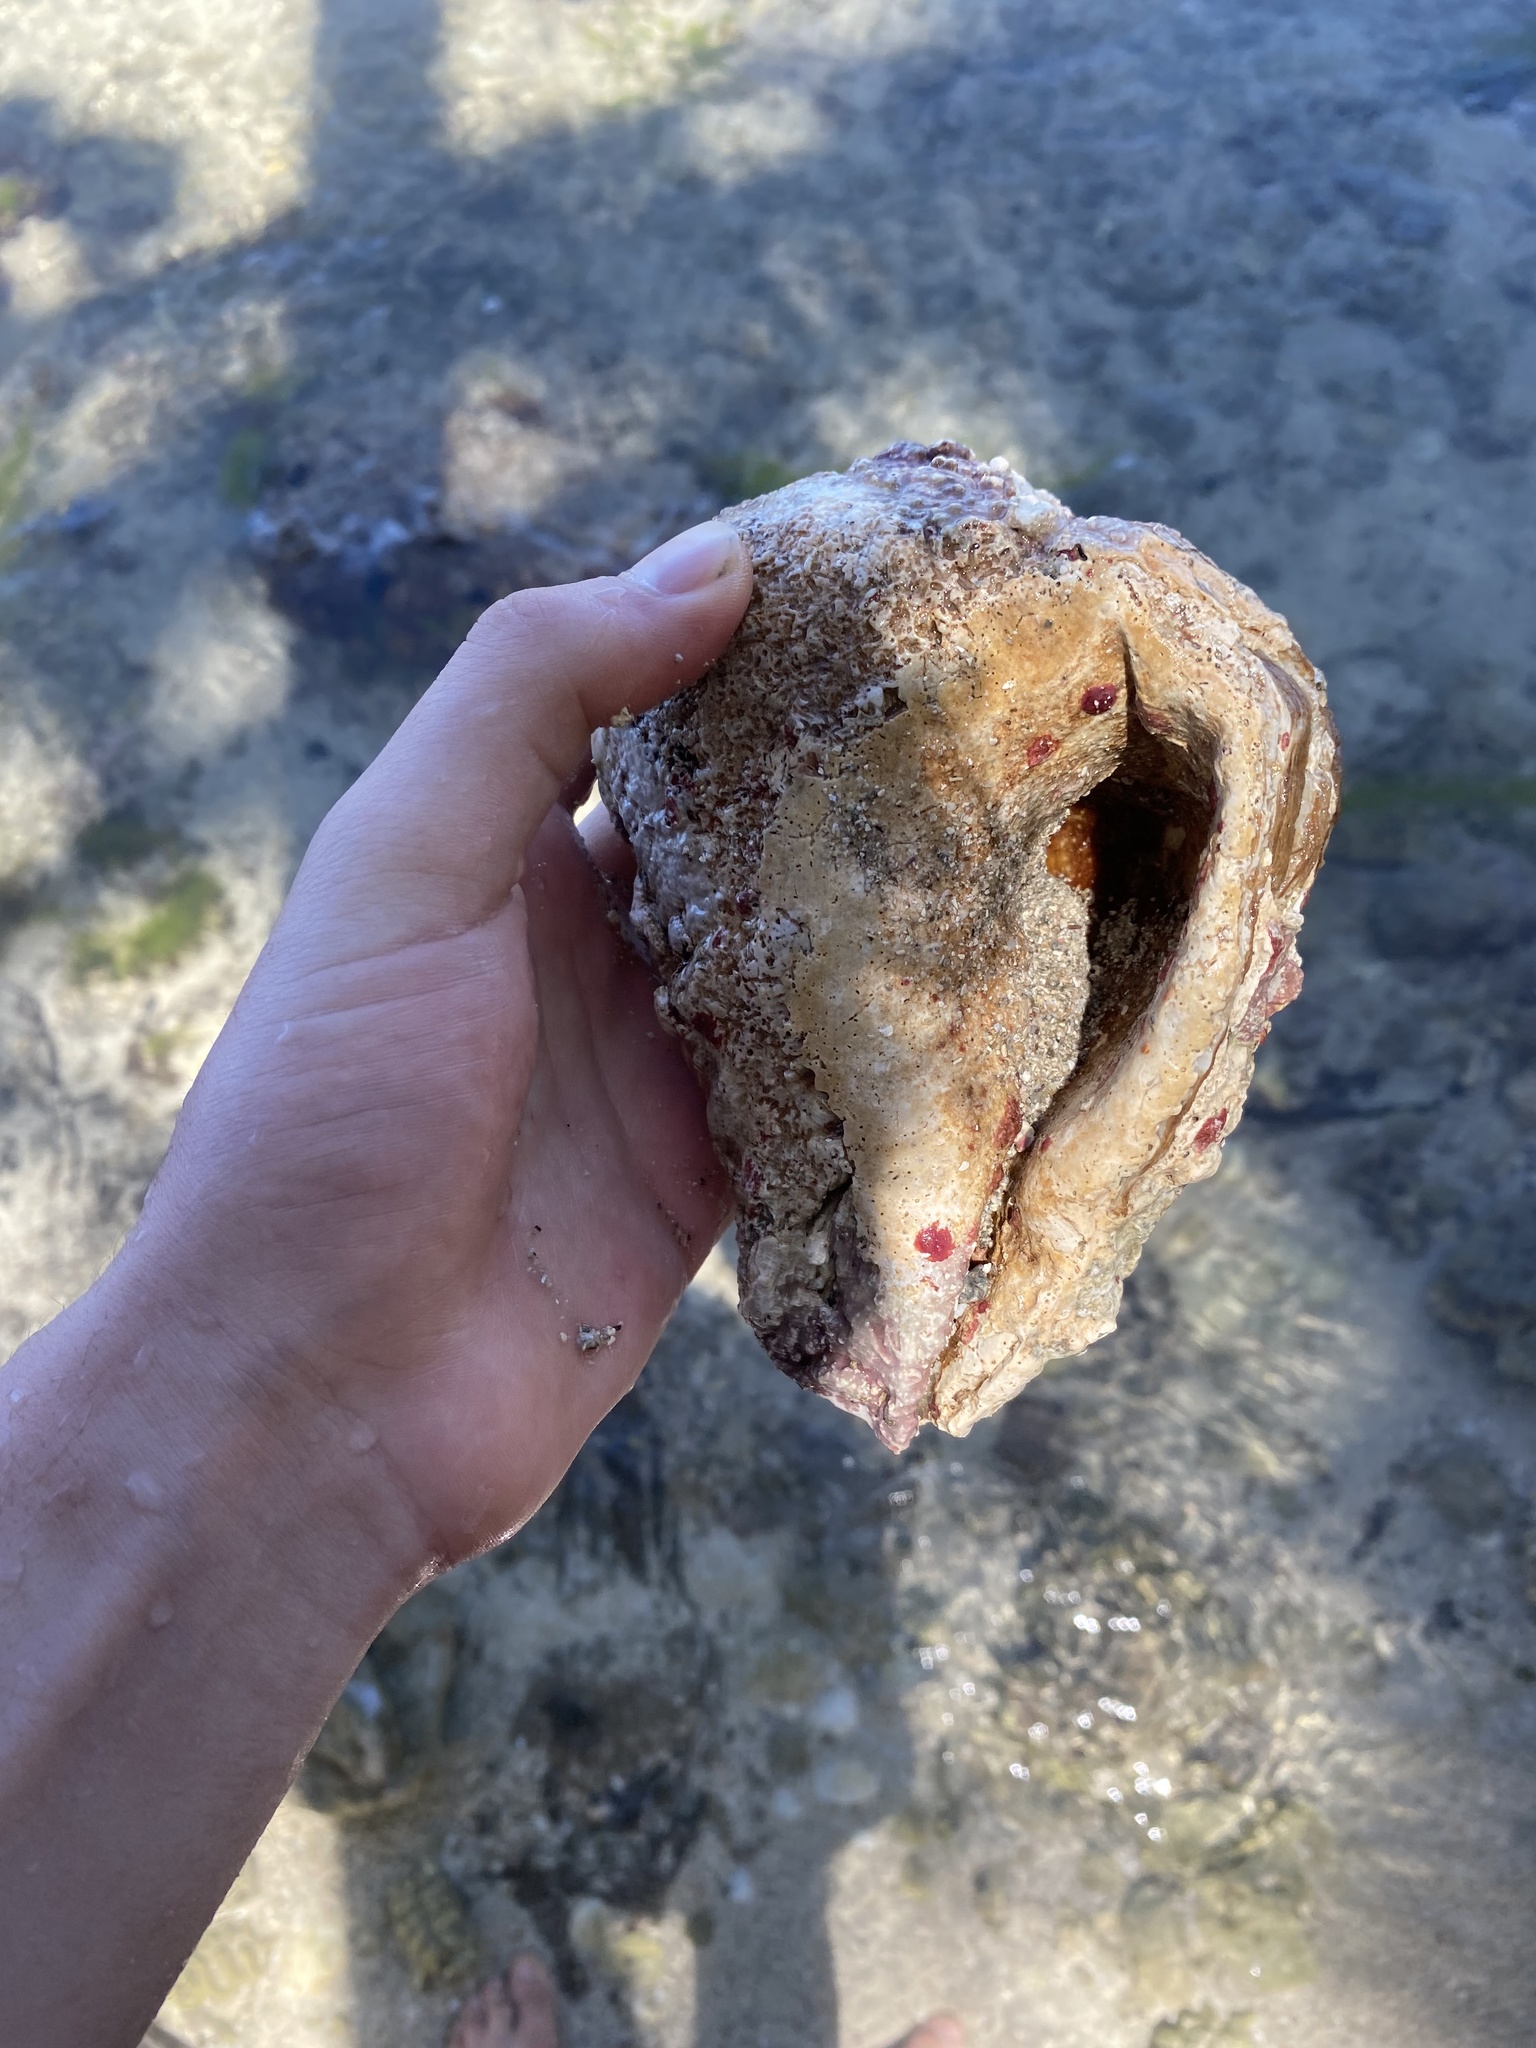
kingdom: Animalia
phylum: Mollusca
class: Gastropoda
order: Neogastropoda
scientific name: Neogastropoda
